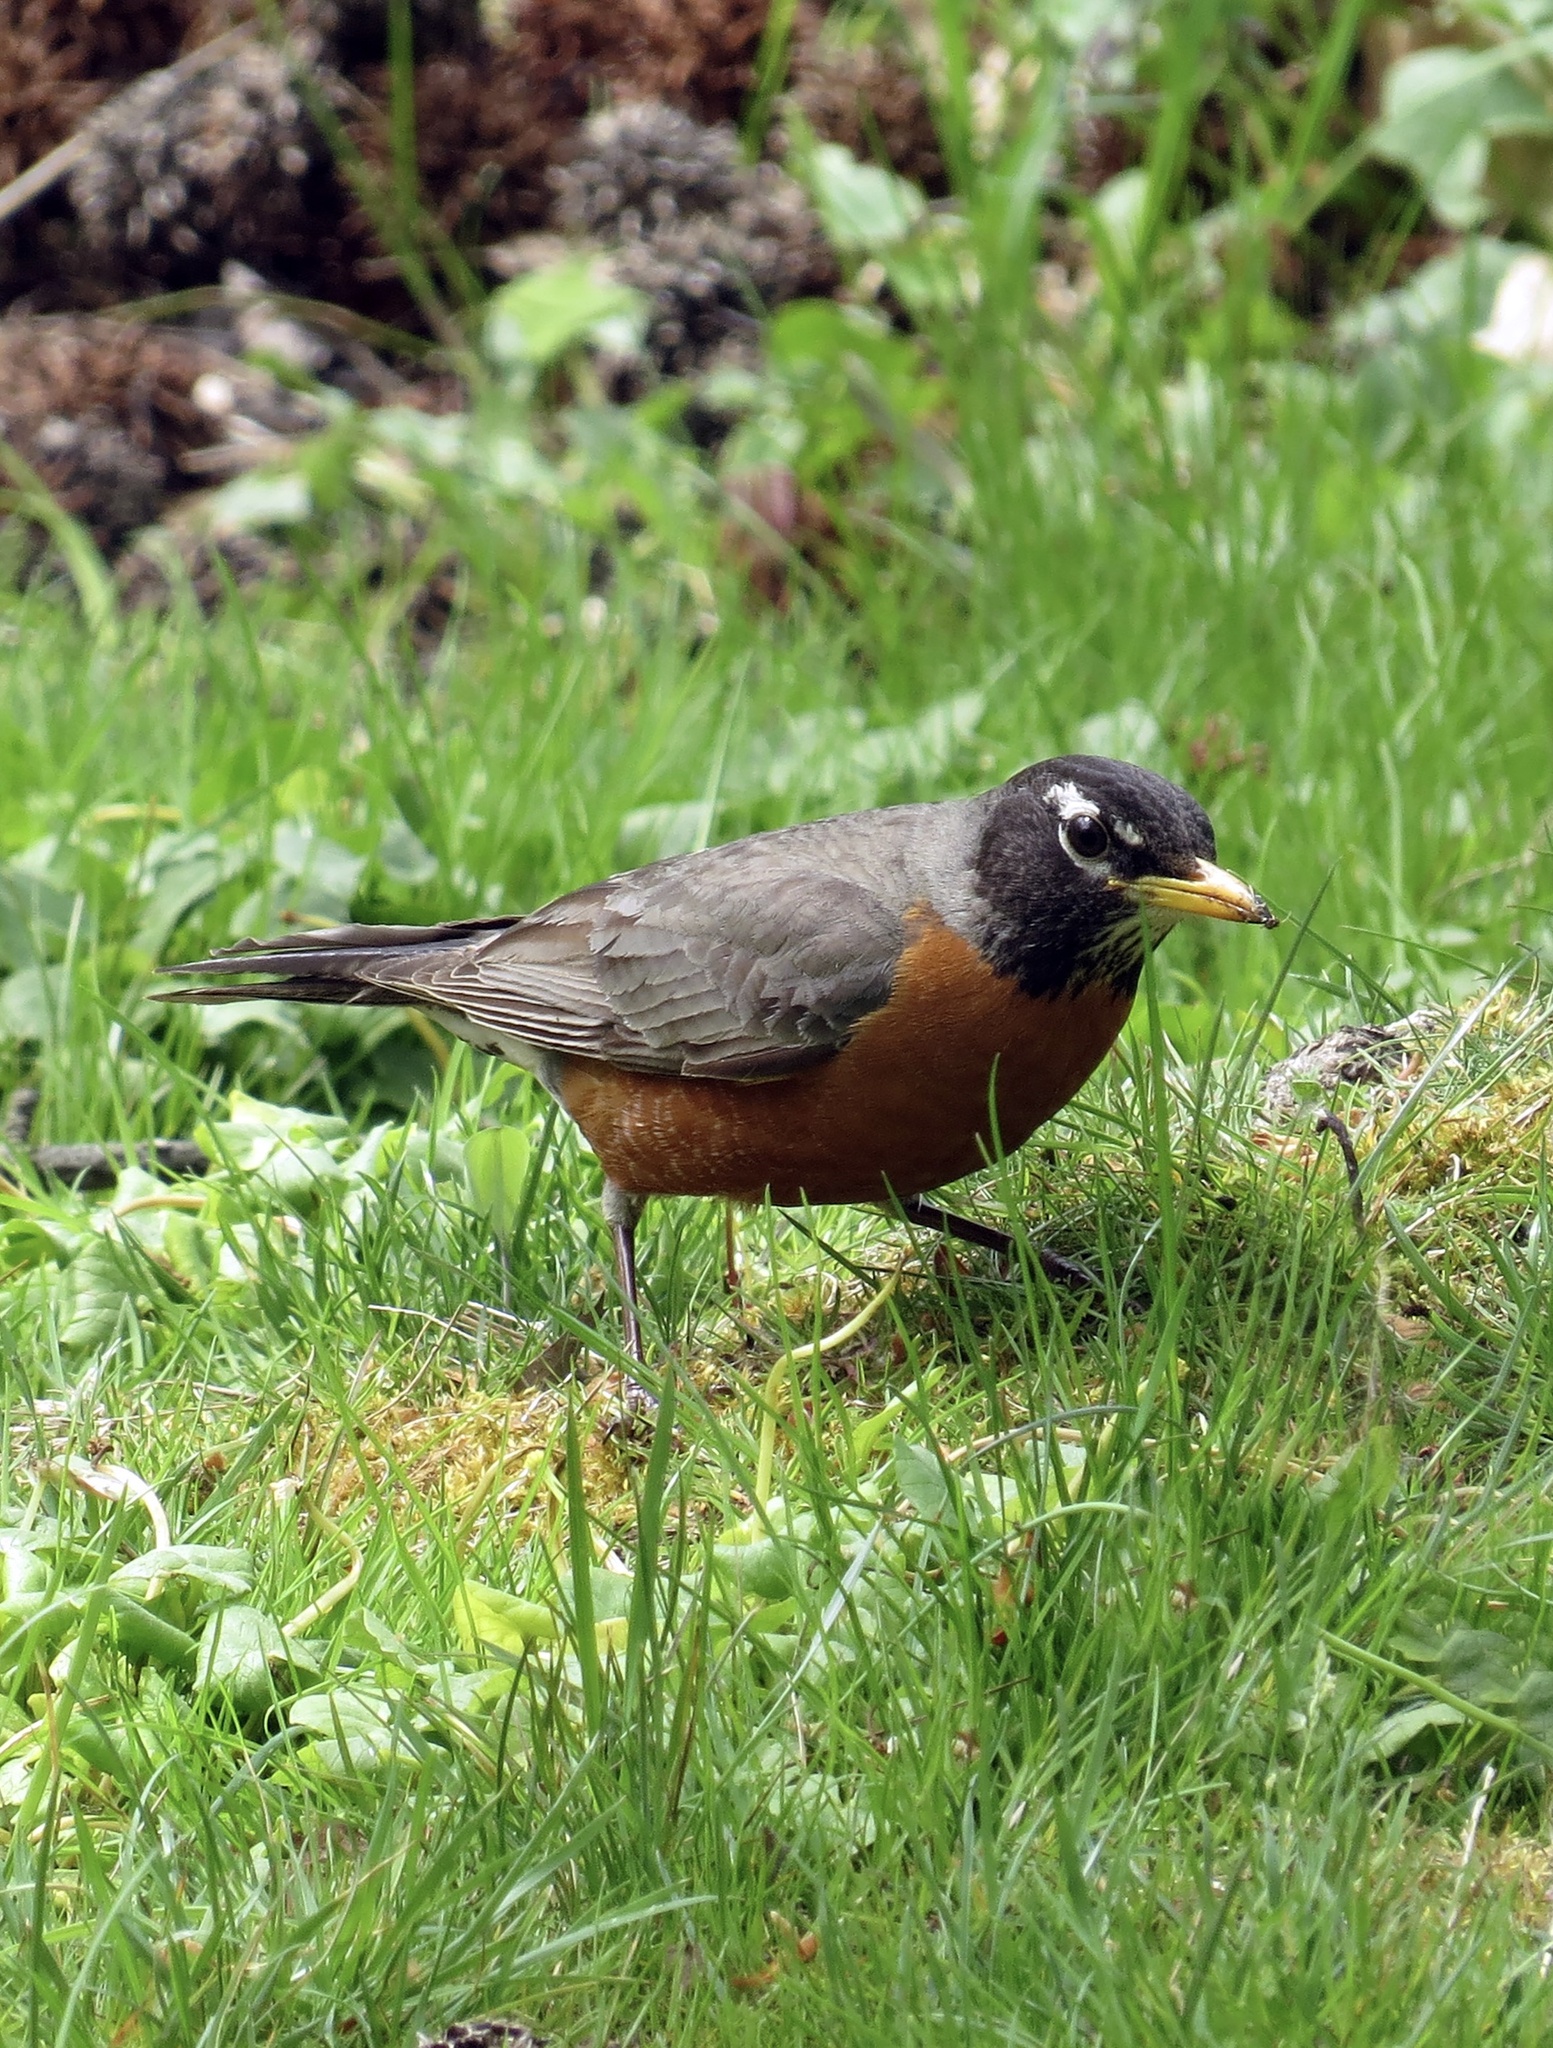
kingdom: Animalia
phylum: Chordata
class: Aves
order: Passeriformes
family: Turdidae
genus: Turdus
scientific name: Turdus migratorius
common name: American robin
